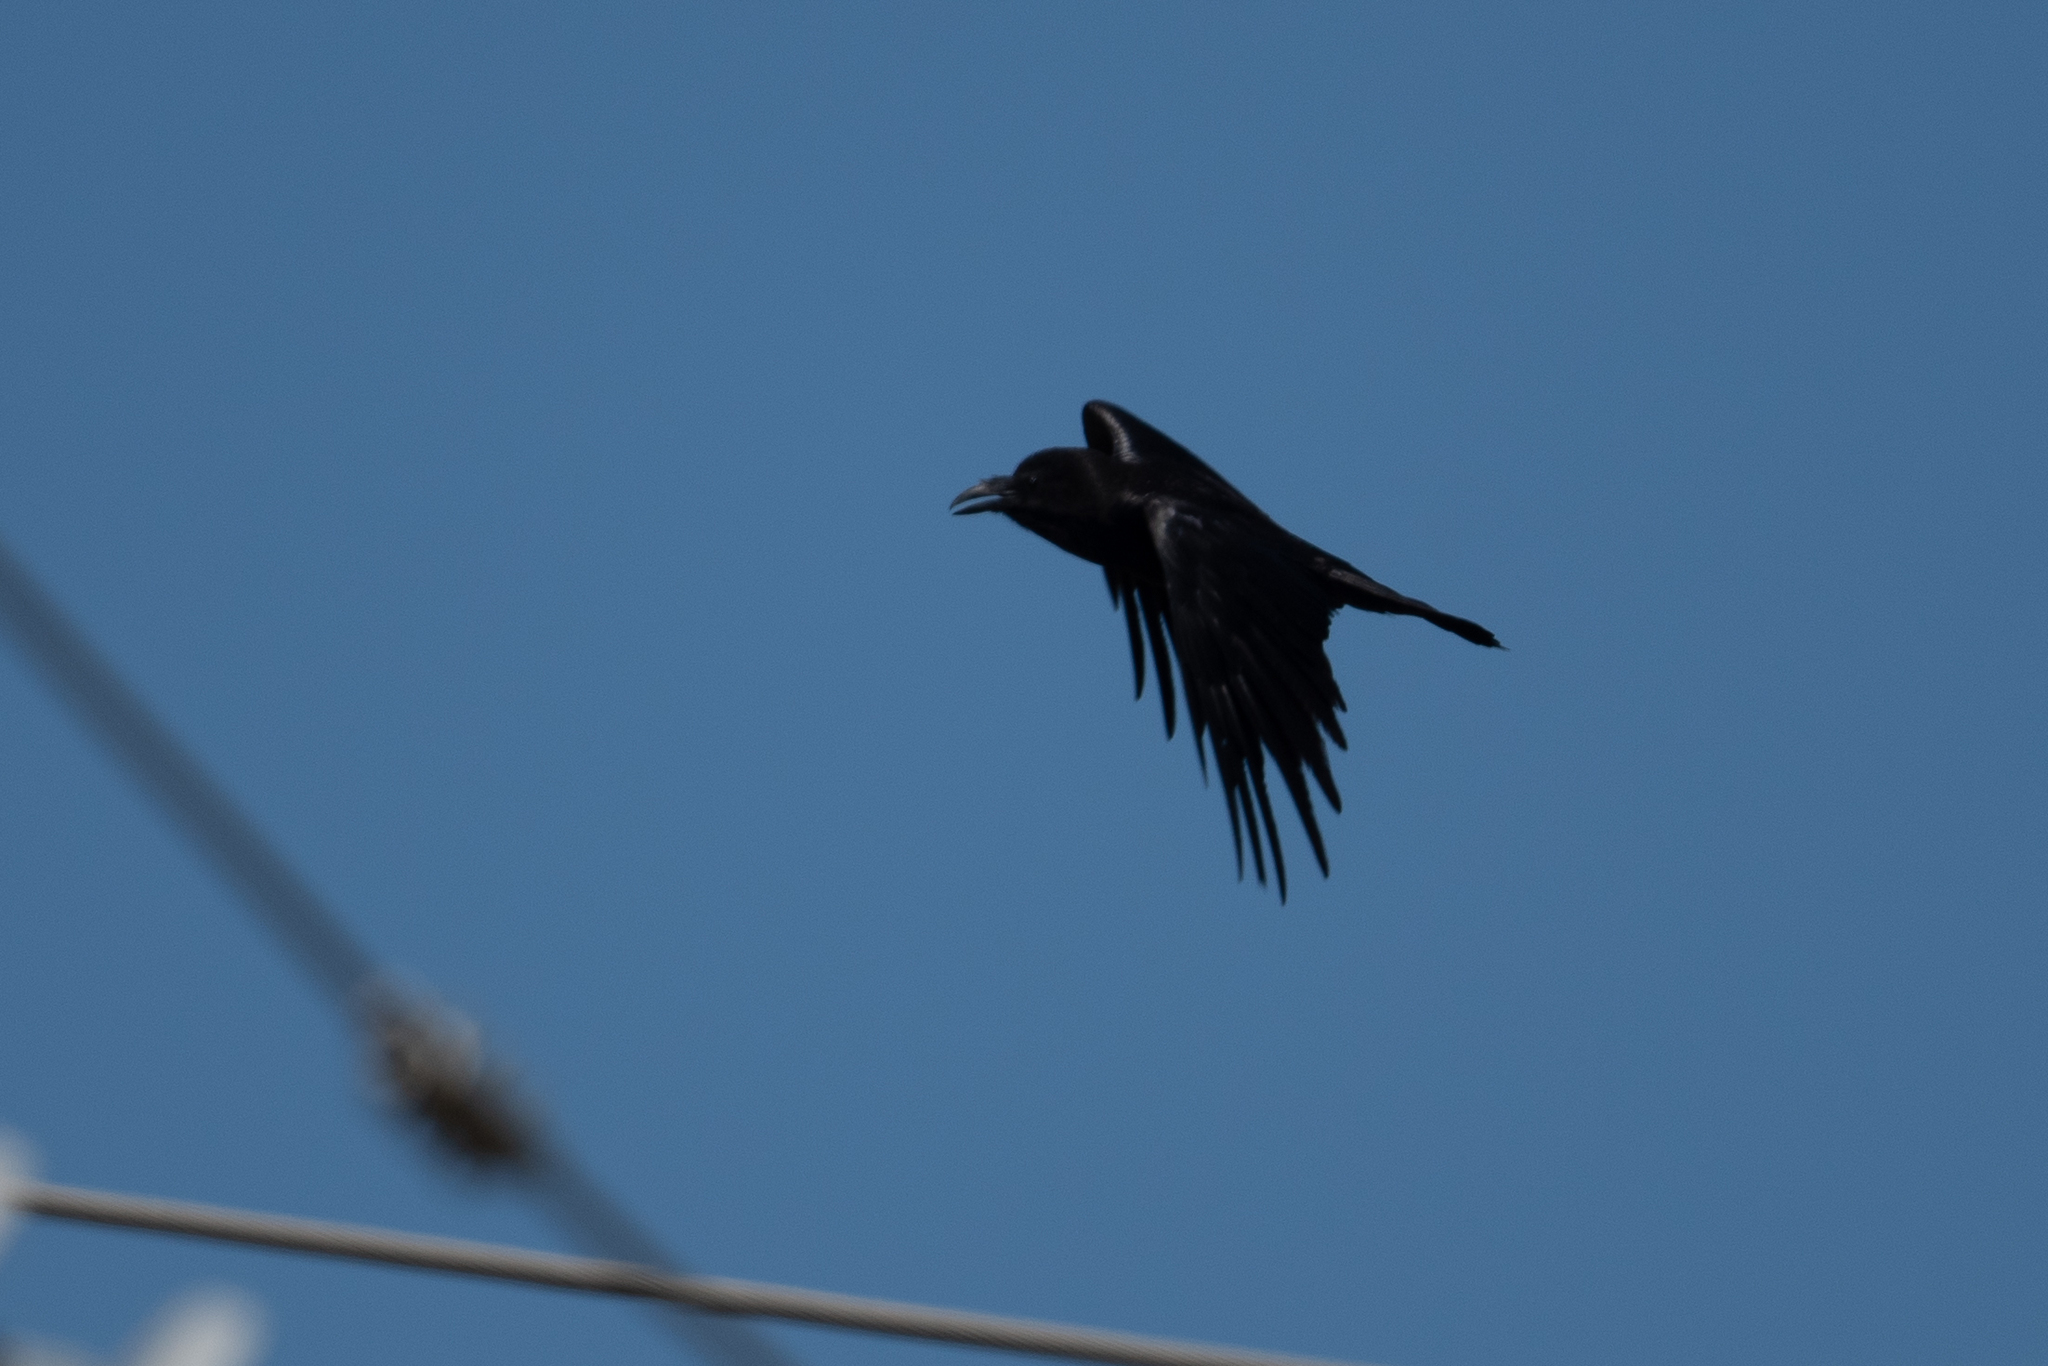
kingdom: Animalia
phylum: Chordata
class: Aves
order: Passeriformes
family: Corvidae
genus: Corvus
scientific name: Corvus corax
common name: Common raven
